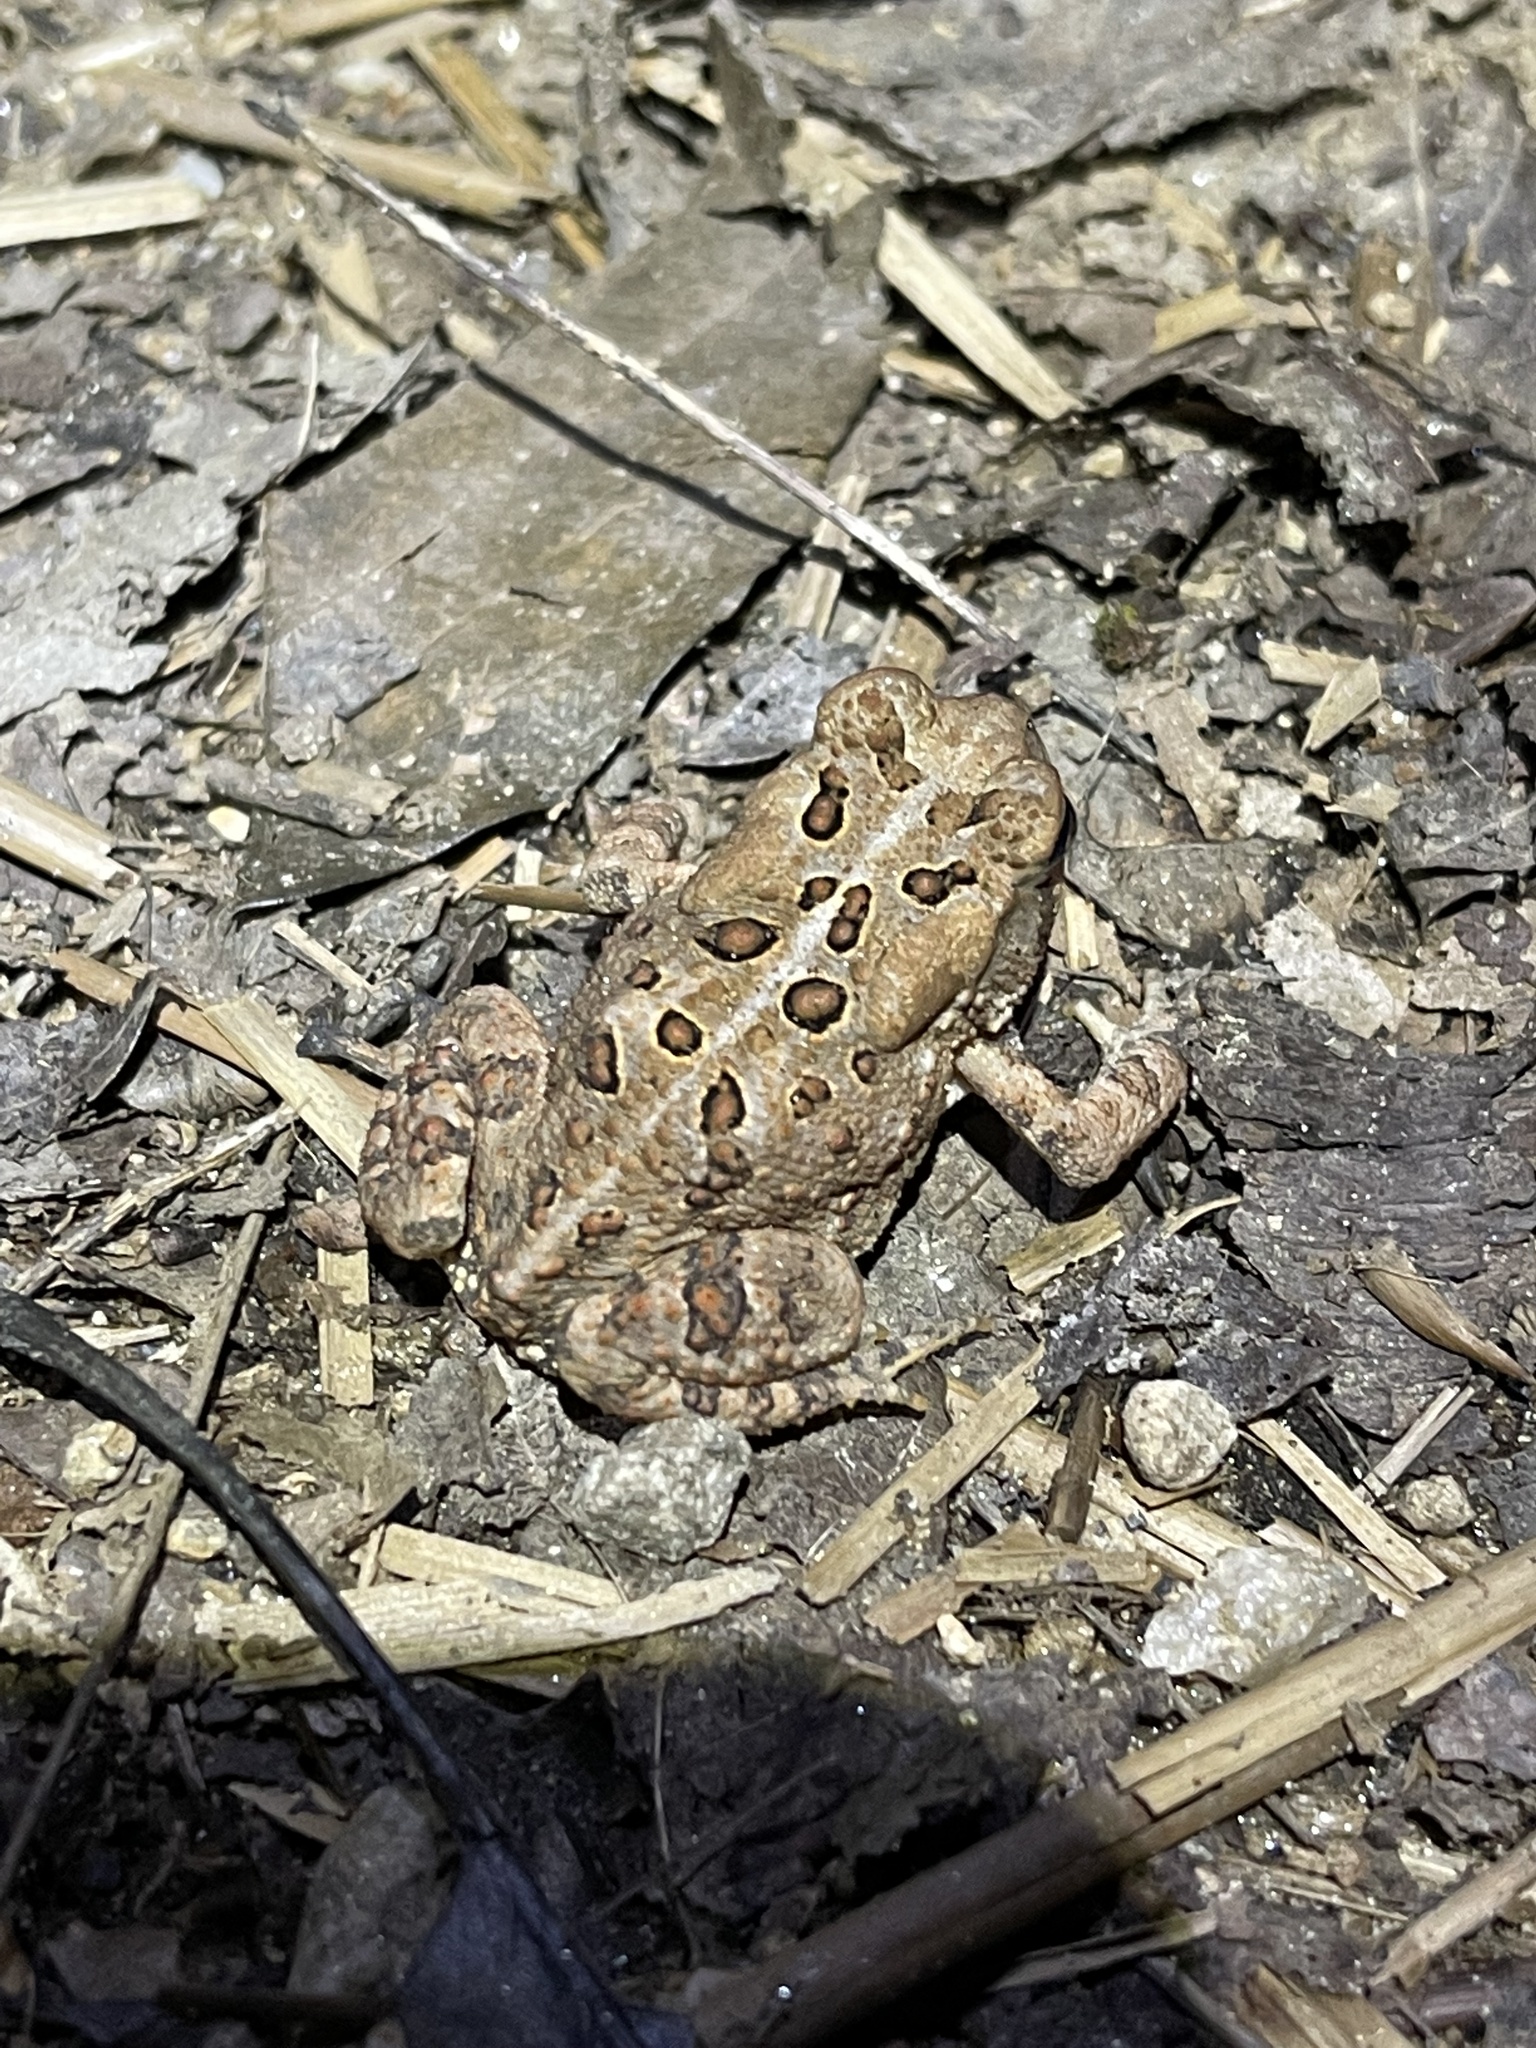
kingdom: Animalia
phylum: Chordata
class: Amphibia
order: Anura
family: Bufonidae
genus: Anaxyrus
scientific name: Anaxyrus americanus
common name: American toad
